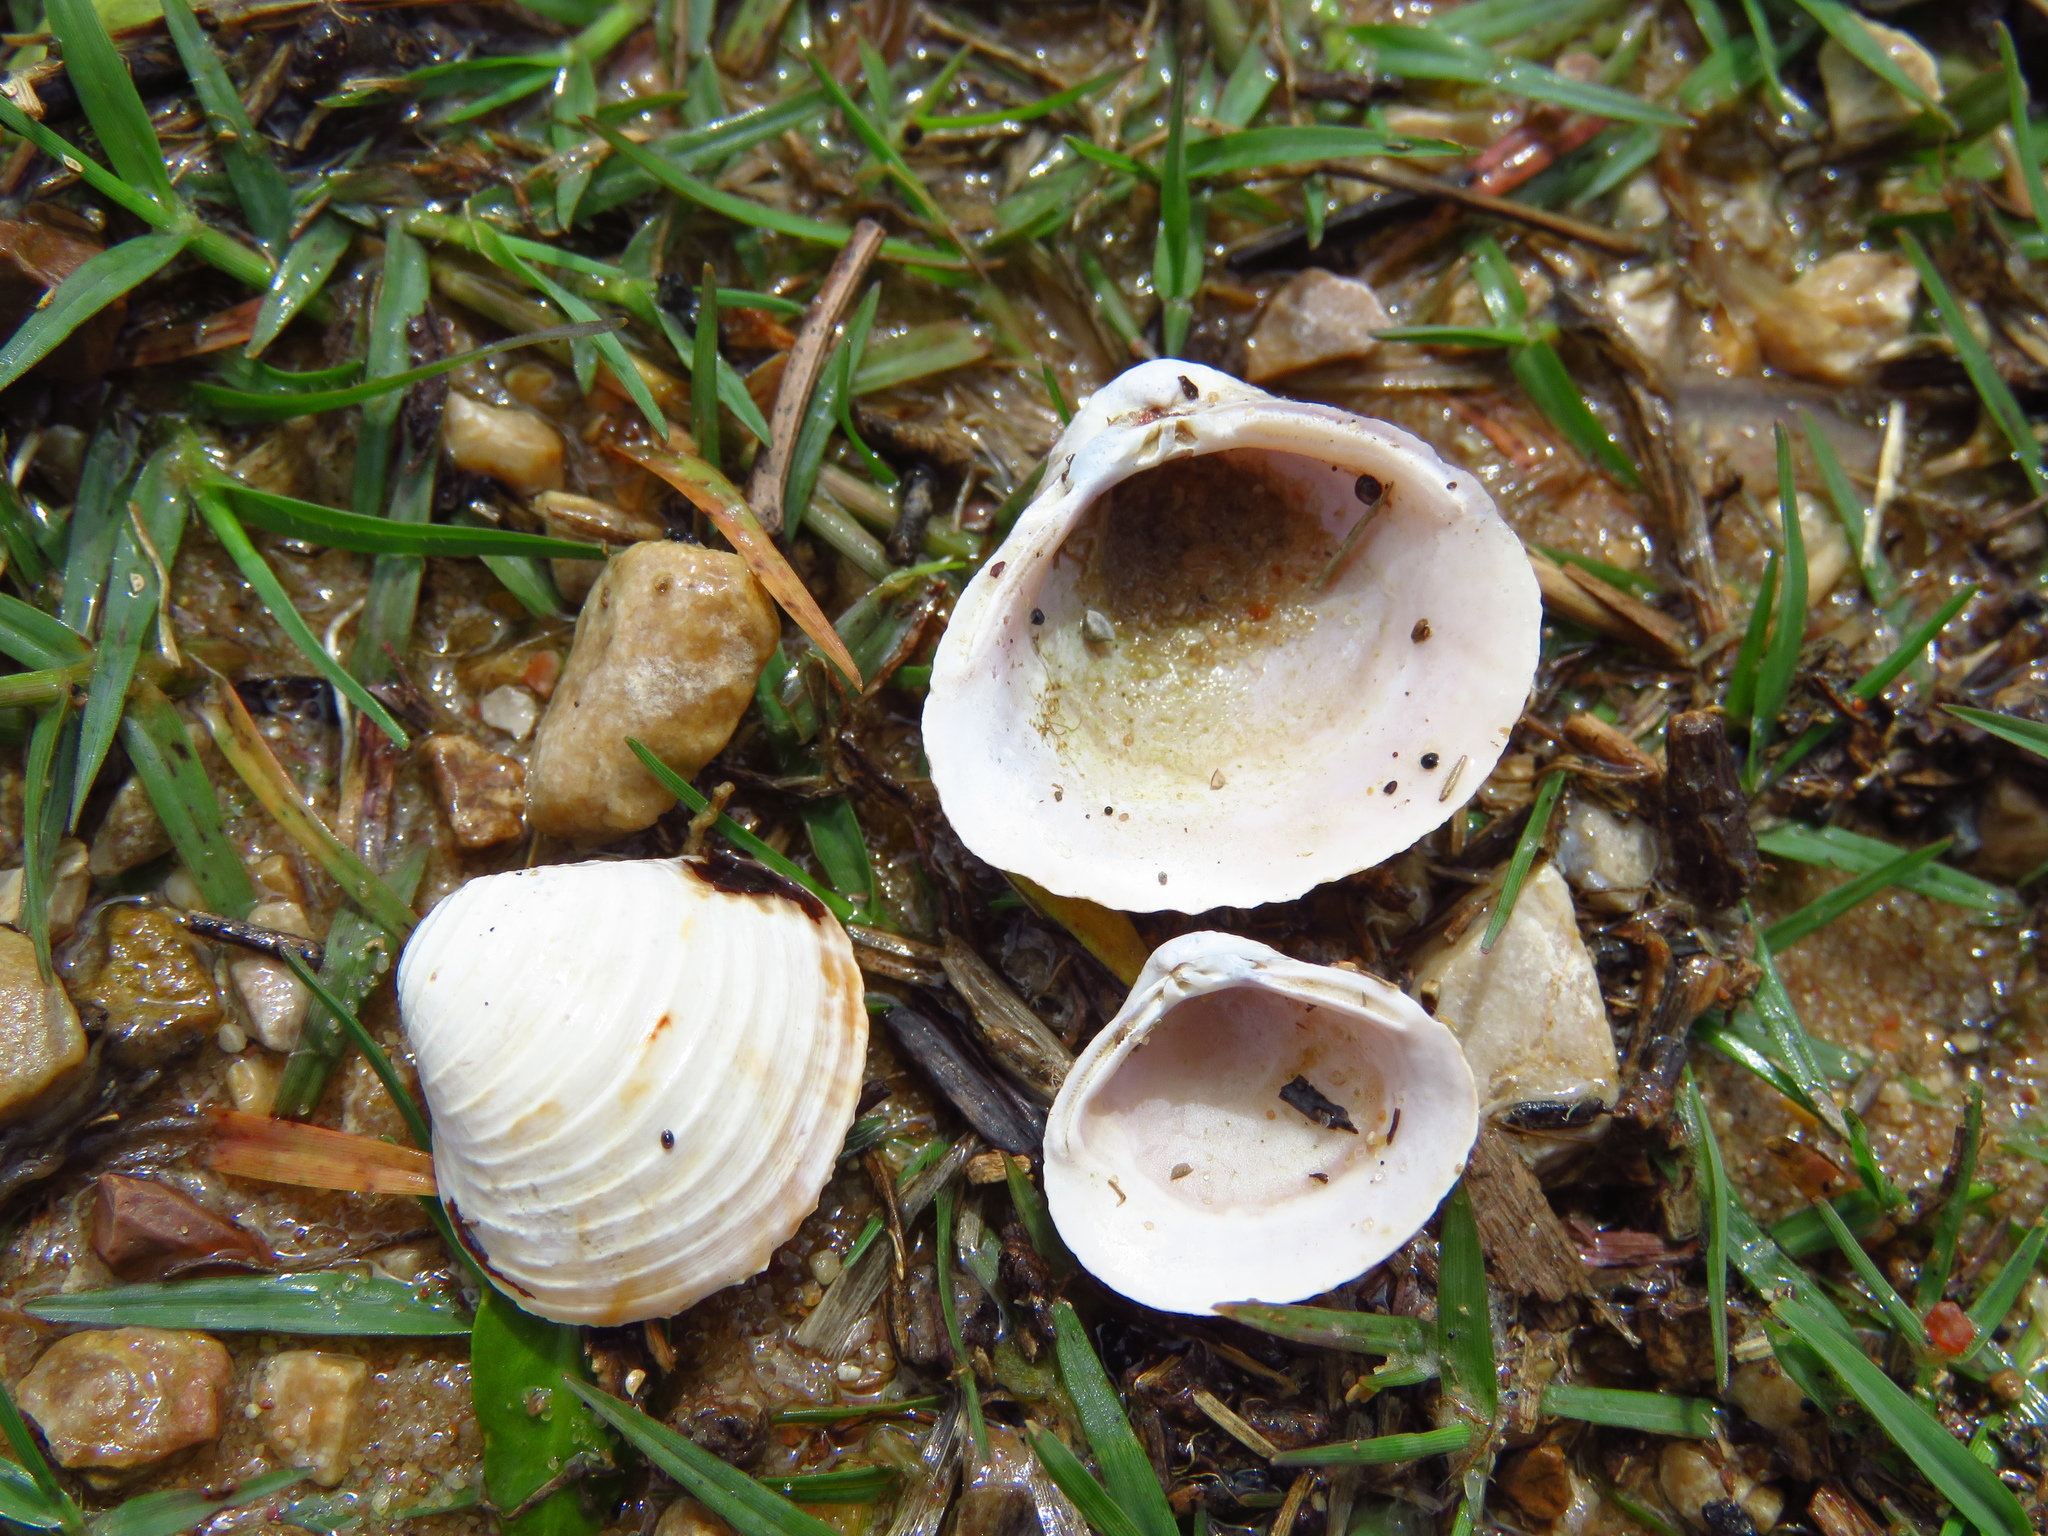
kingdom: Animalia
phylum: Mollusca
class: Bivalvia
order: Venerida
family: Cyrenidae
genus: Corbicula
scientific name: Corbicula fluminea
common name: Asian clam
